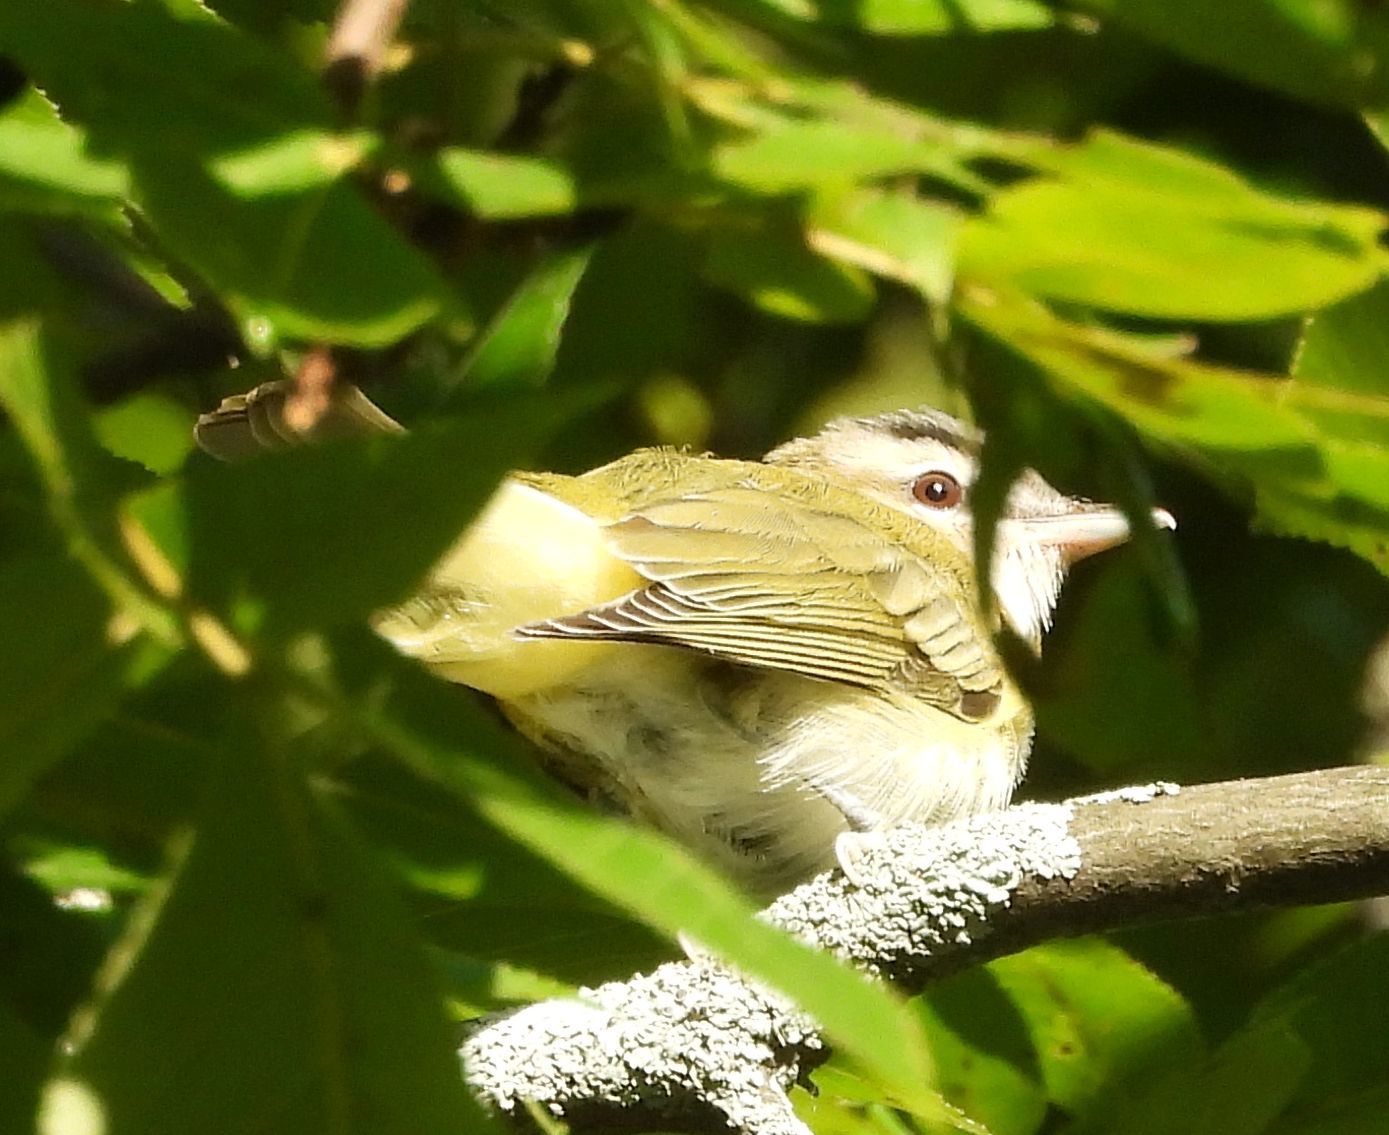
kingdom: Animalia
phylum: Chordata
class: Aves
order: Passeriformes
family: Vireonidae
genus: Vireo
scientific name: Vireo olivaceus
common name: Red-eyed vireo
